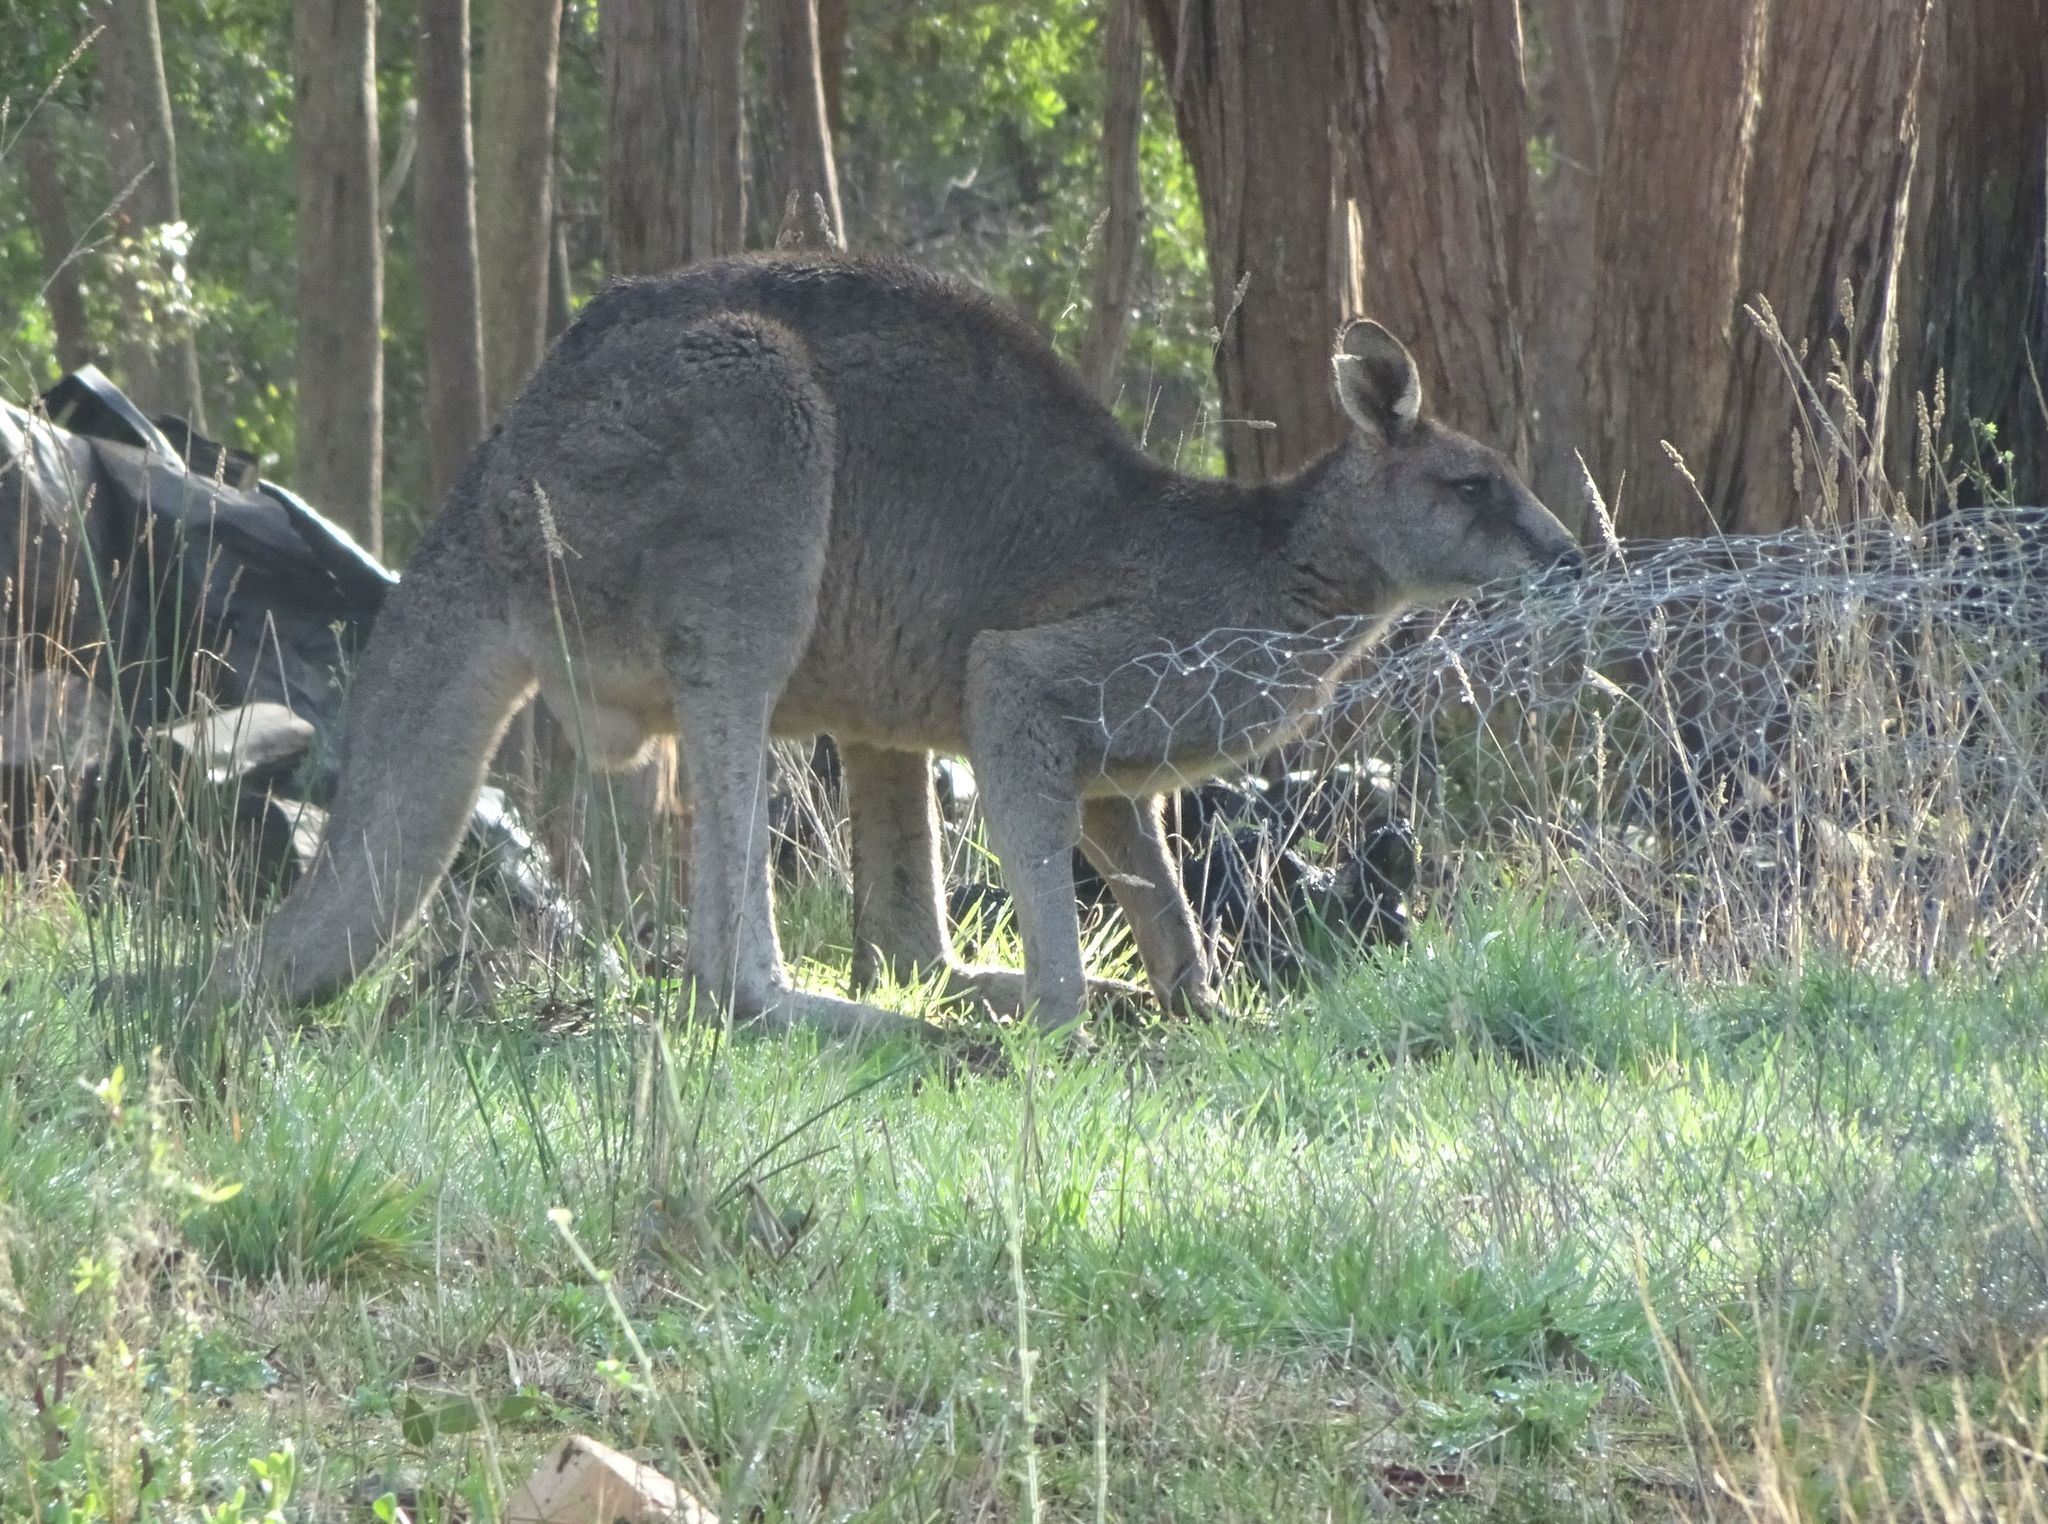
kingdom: Animalia
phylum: Chordata
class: Mammalia
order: Diprotodontia
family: Macropodidae
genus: Macropus
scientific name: Macropus giganteus
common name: Eastern grey kangaroo
